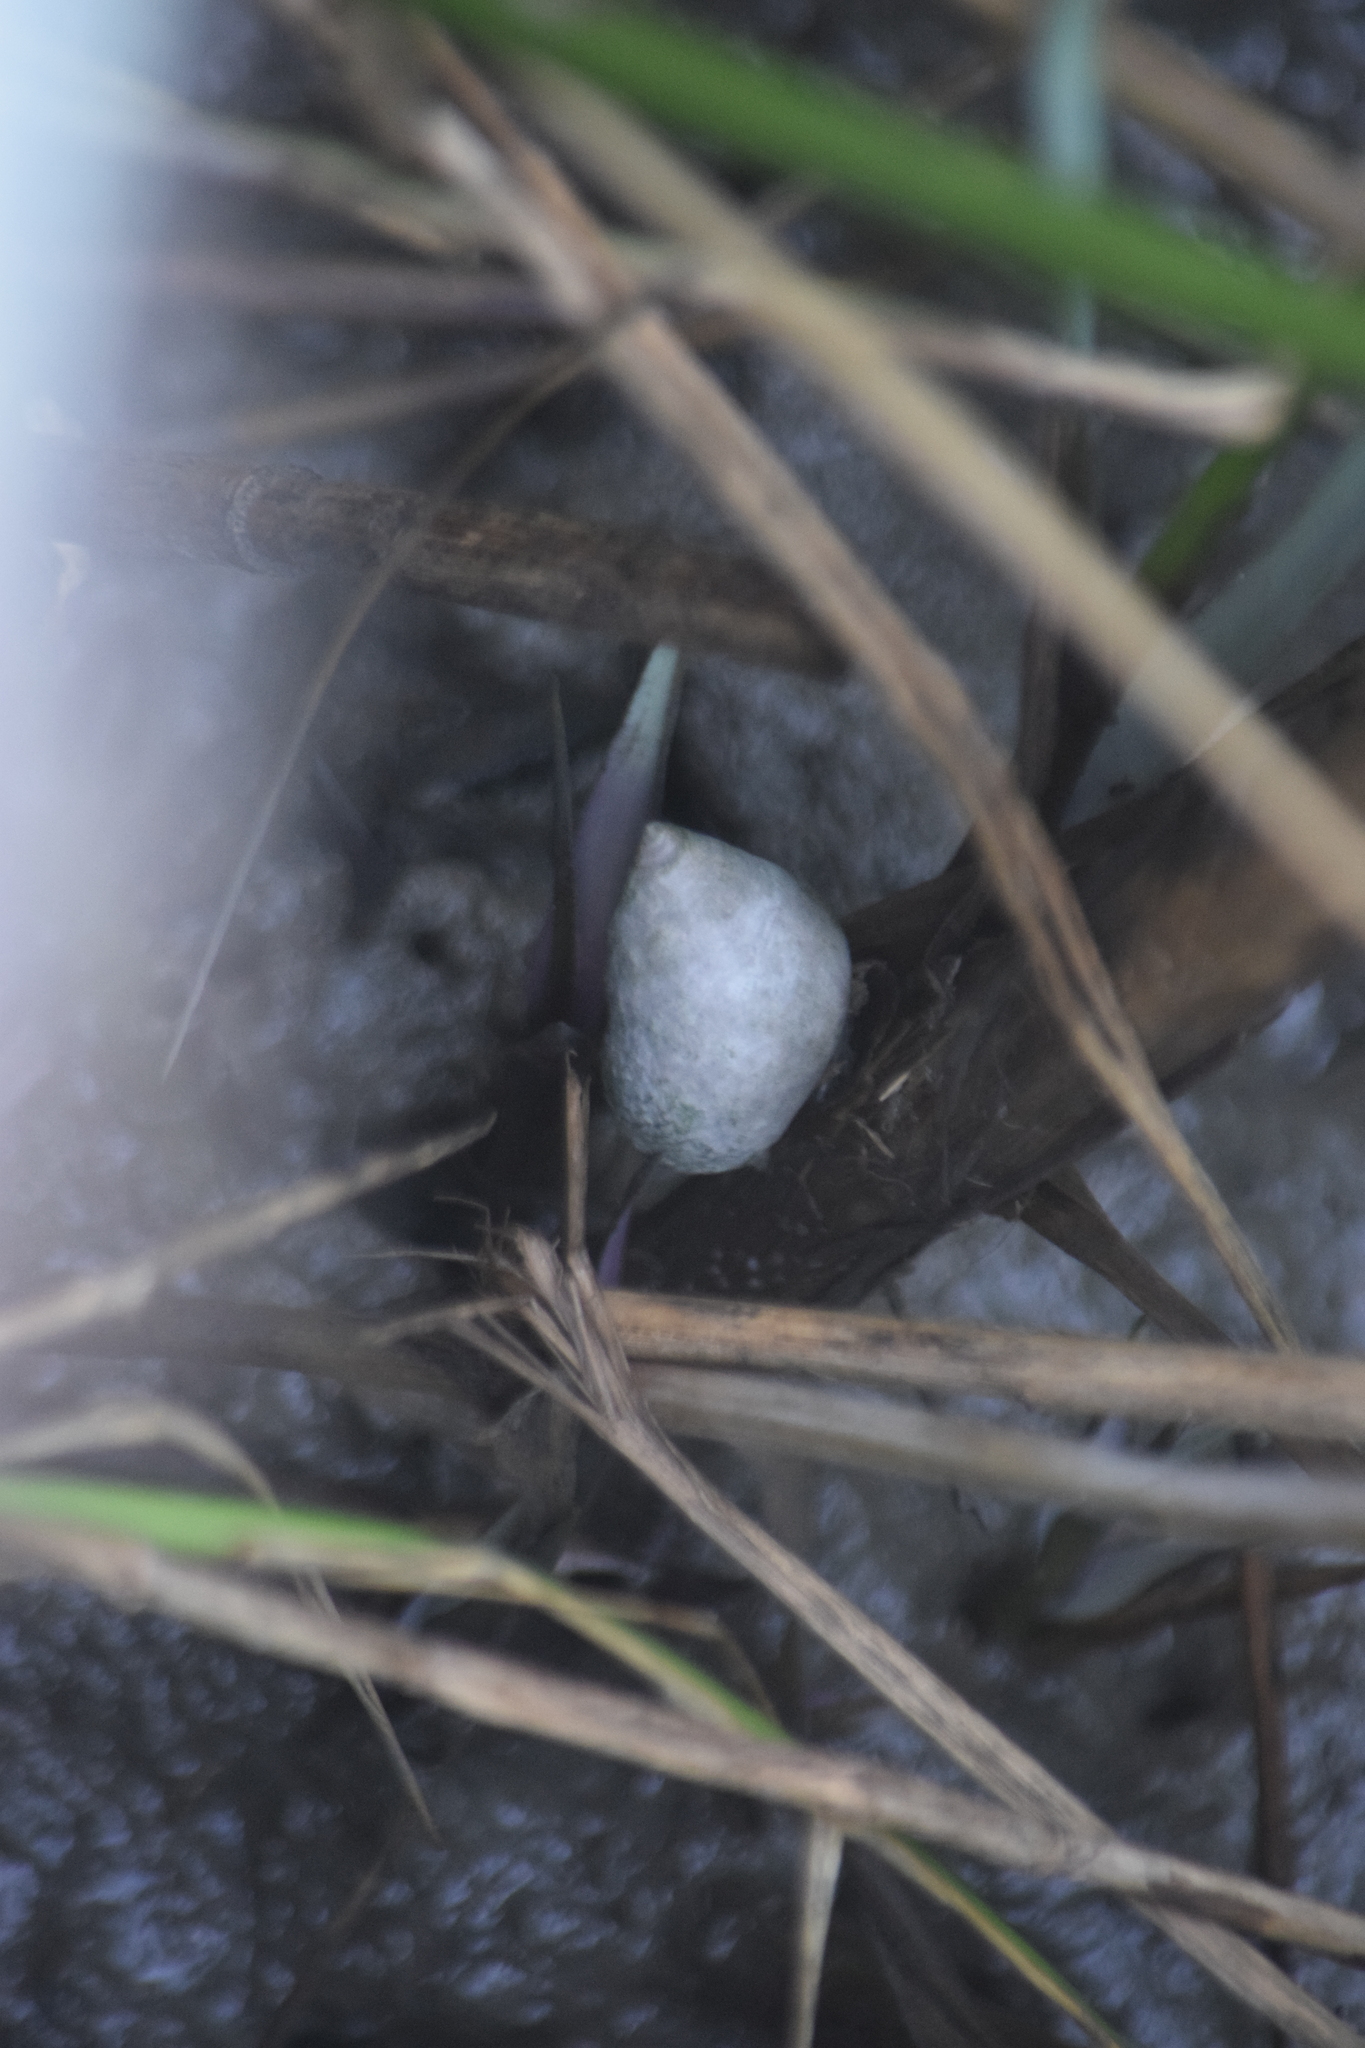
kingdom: Animalia
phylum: Mollusca
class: Gastropoda
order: Littorinimorpha
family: Littorinidae
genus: Littoraria
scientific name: Littoraria irrorata
